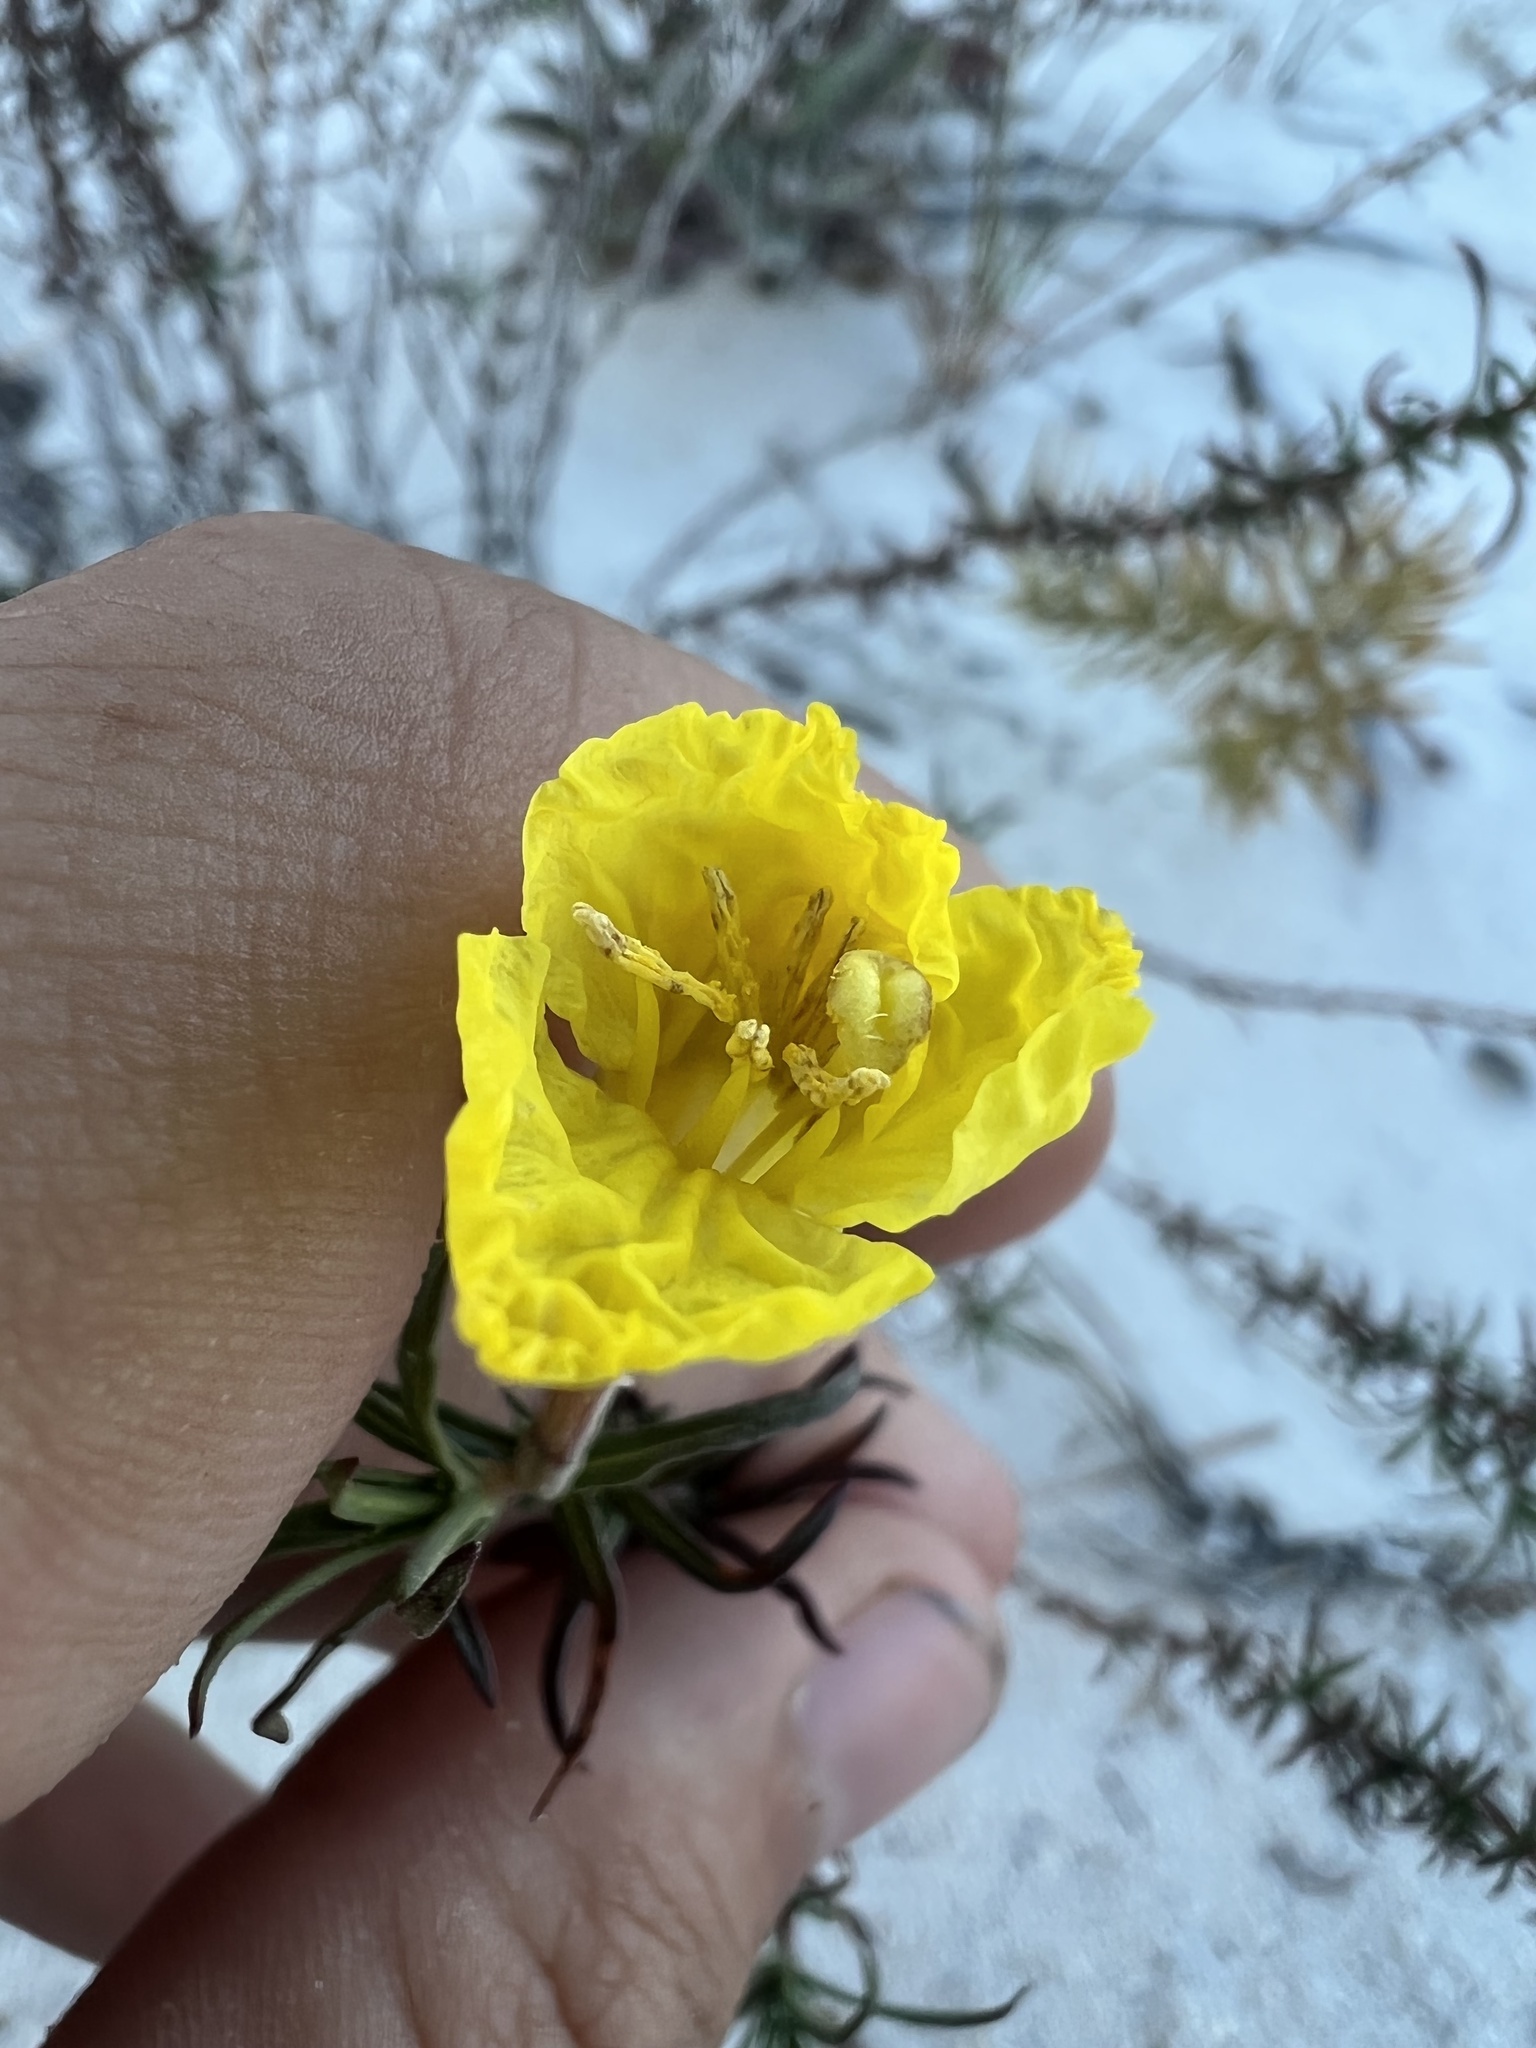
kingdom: Plantae
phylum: Tracheophyta
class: Magnoliopsida
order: Myrtales
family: Onagraceae
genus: Oenothera
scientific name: Oenothera hartwegii
